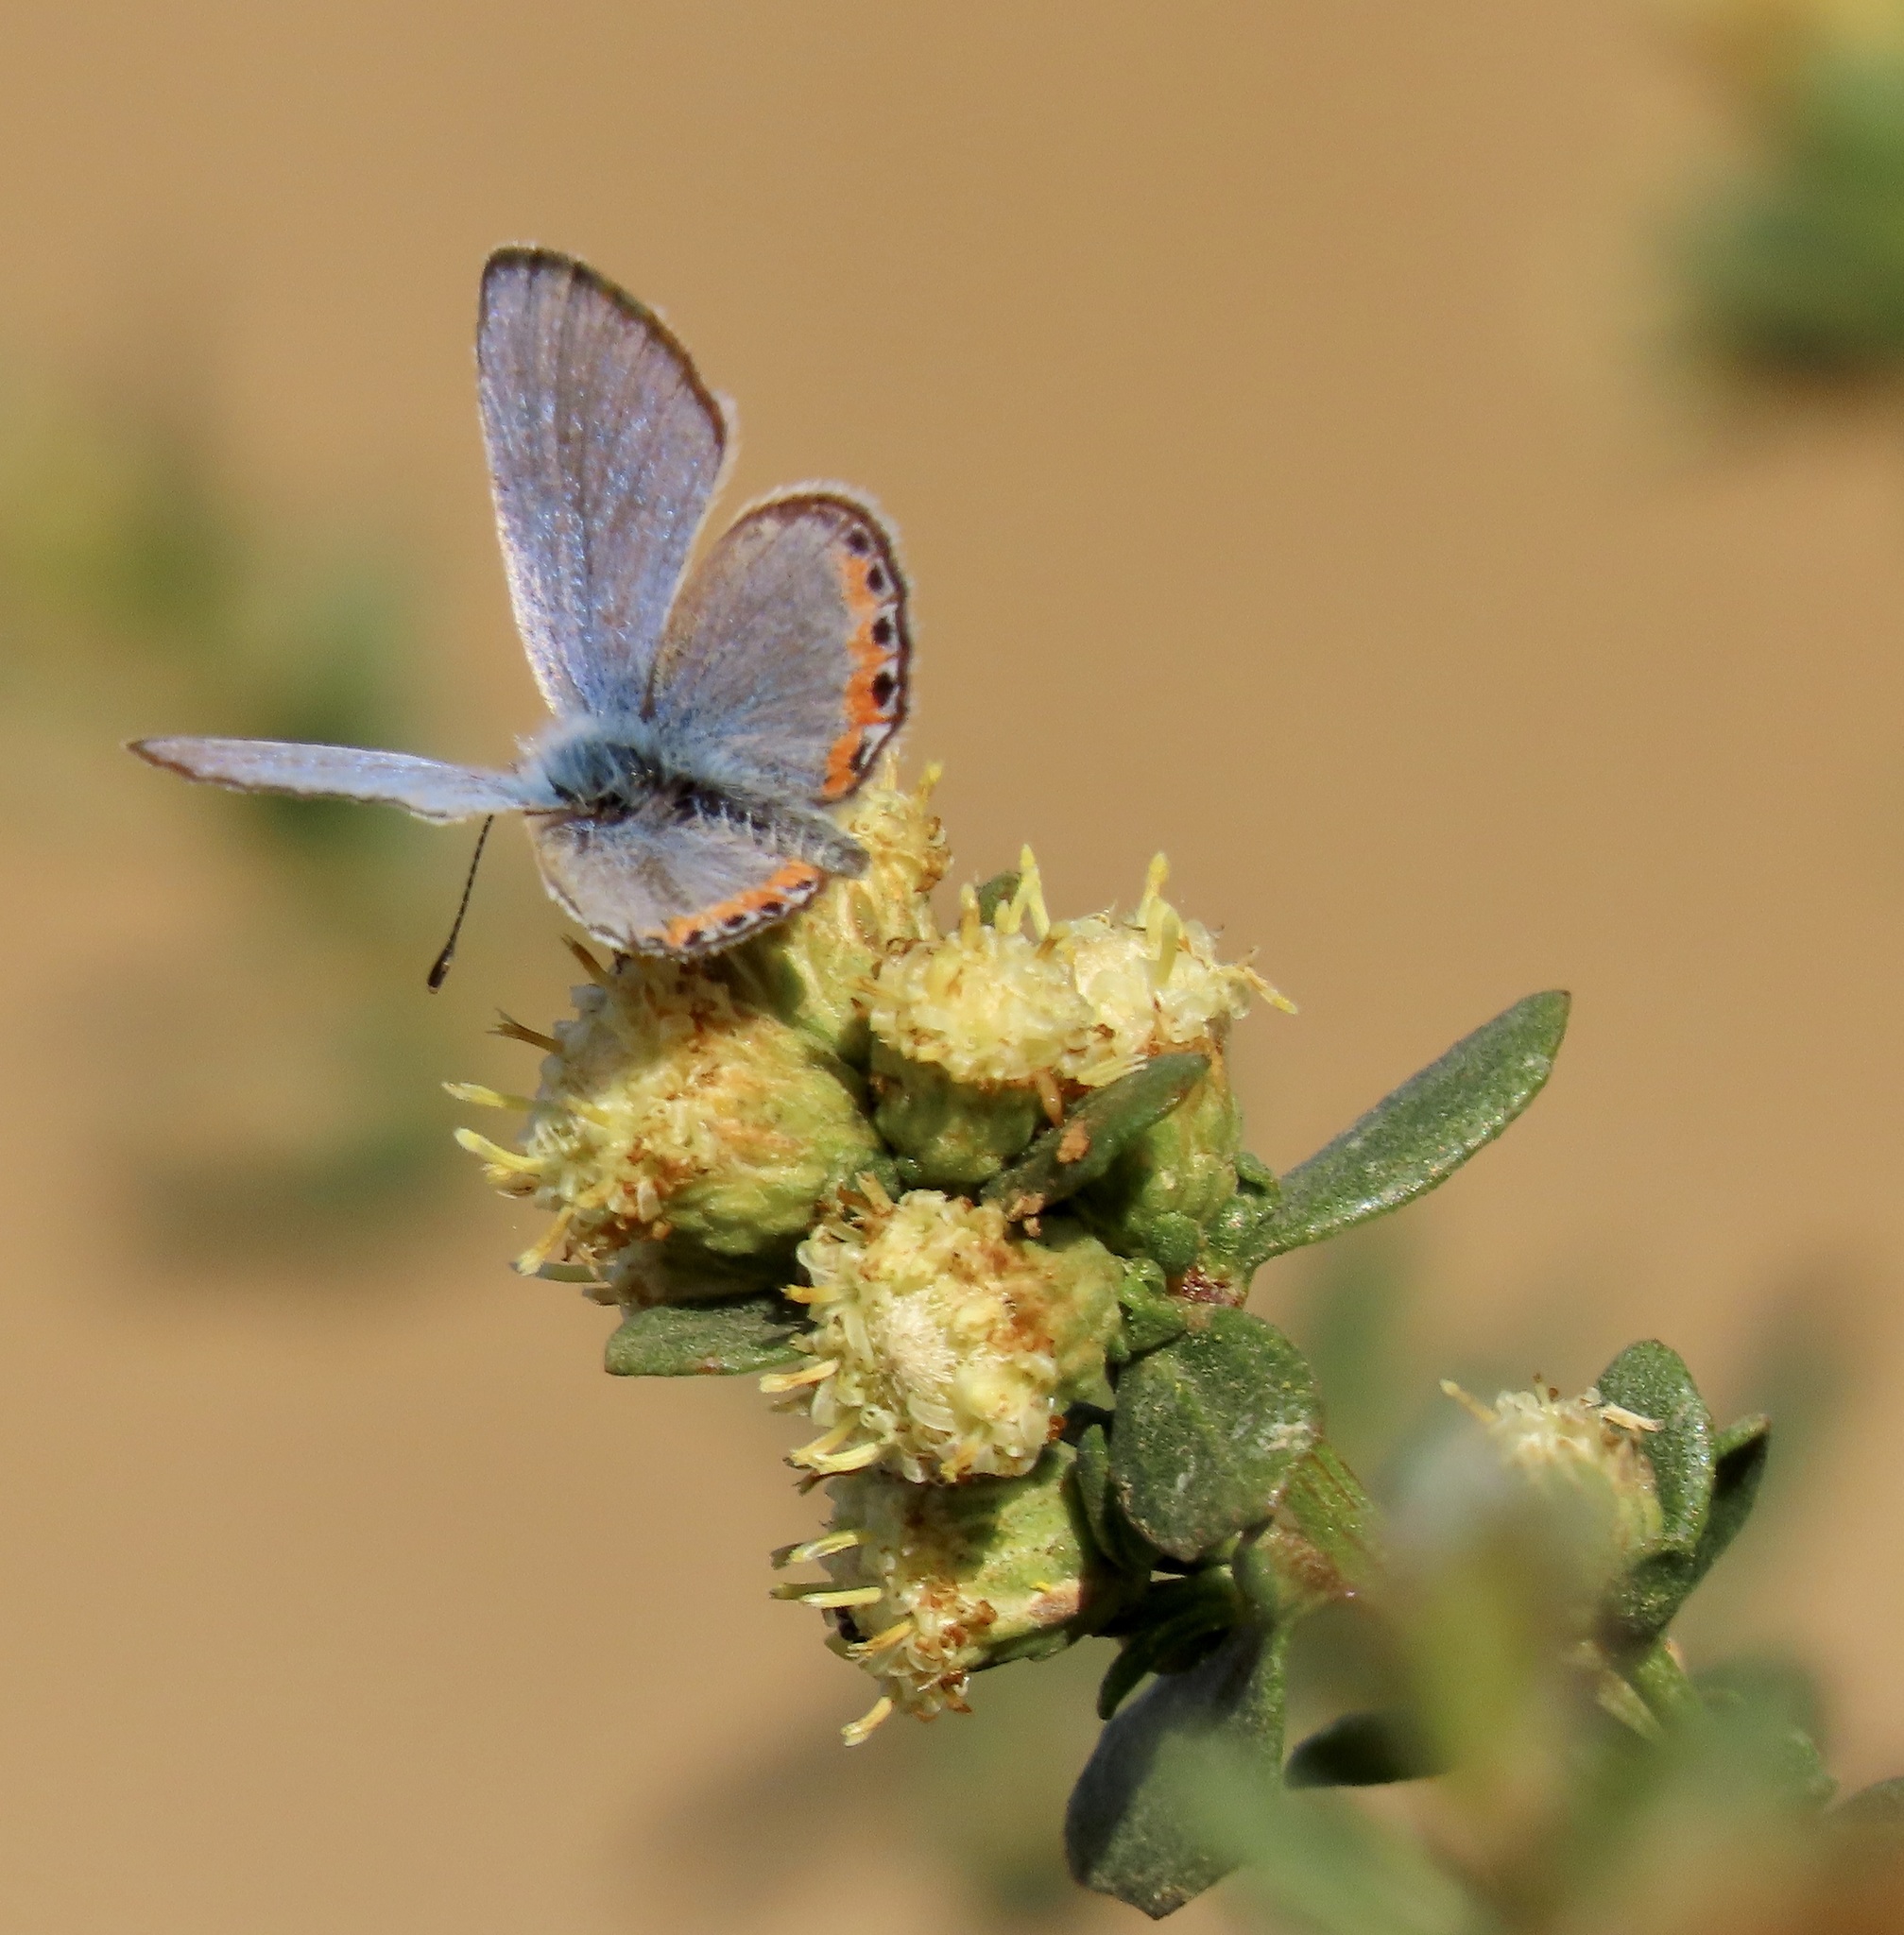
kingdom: Animalia
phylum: Arthropoda
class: Insecta
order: Lepidoptera
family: Lycaenidae
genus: Icaricia
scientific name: Icaricia acmon
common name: Acmon blue
